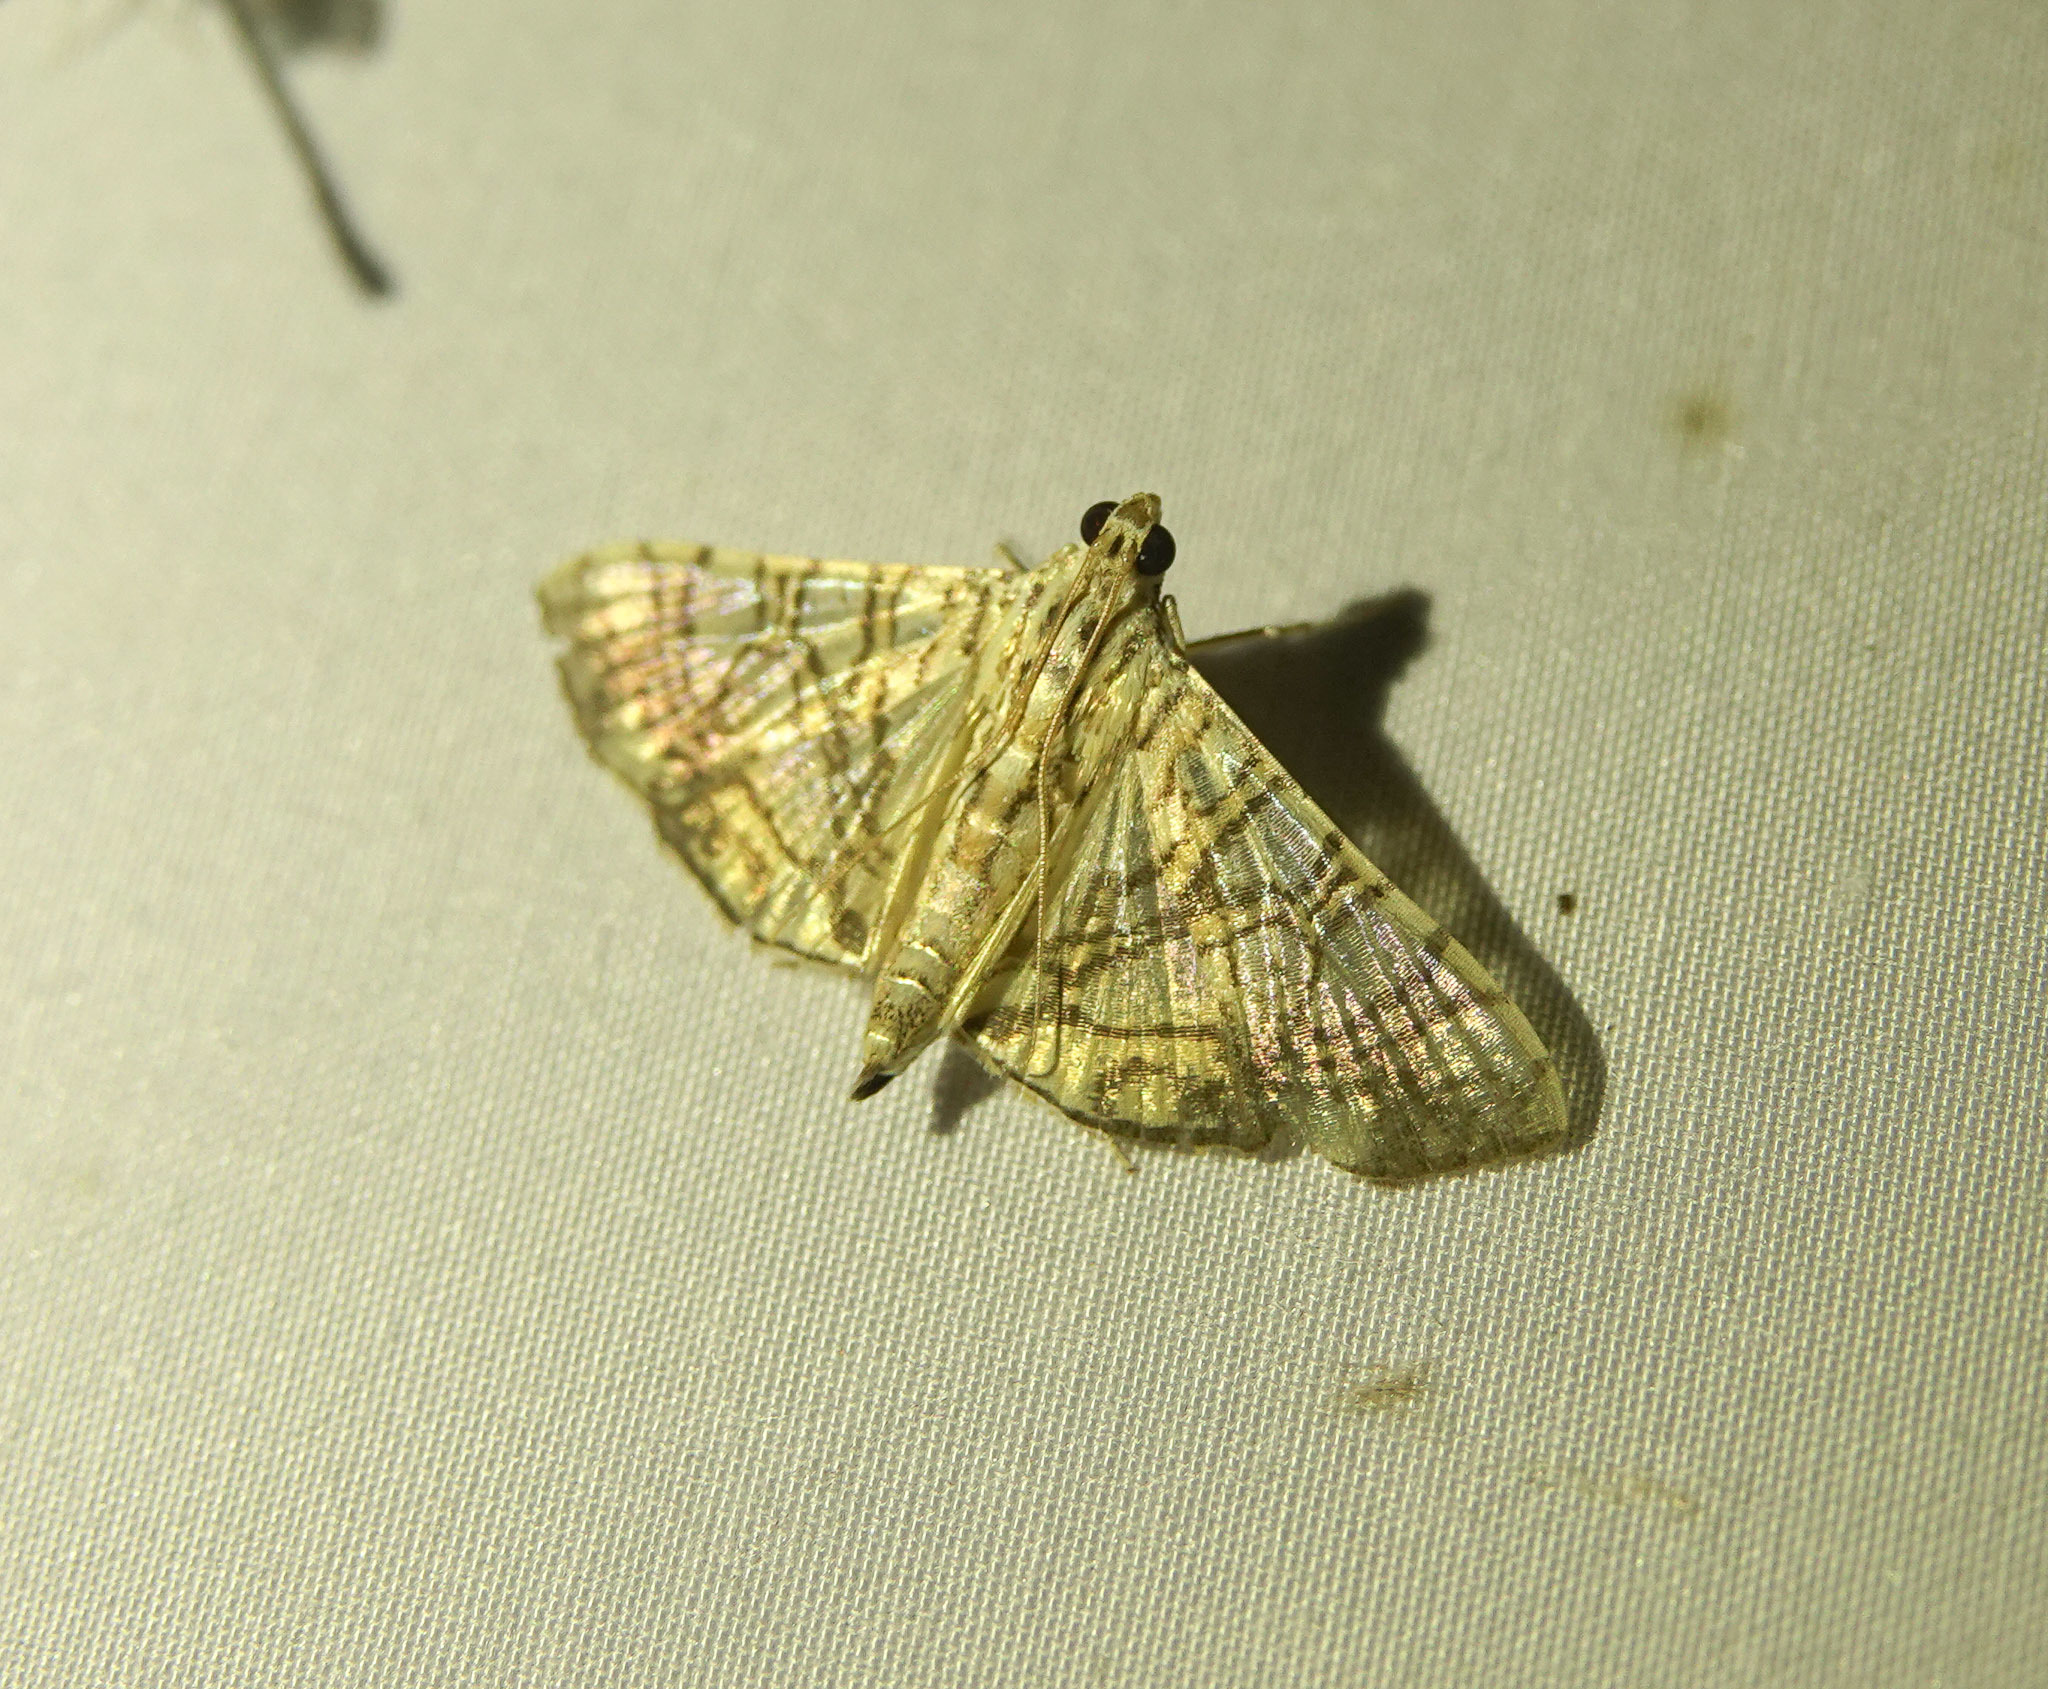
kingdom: Animalia
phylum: Arthropoda
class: Insecta
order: Lepidoptera
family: Crambidae
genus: Glyphodes
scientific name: Glyphodes caesalis
